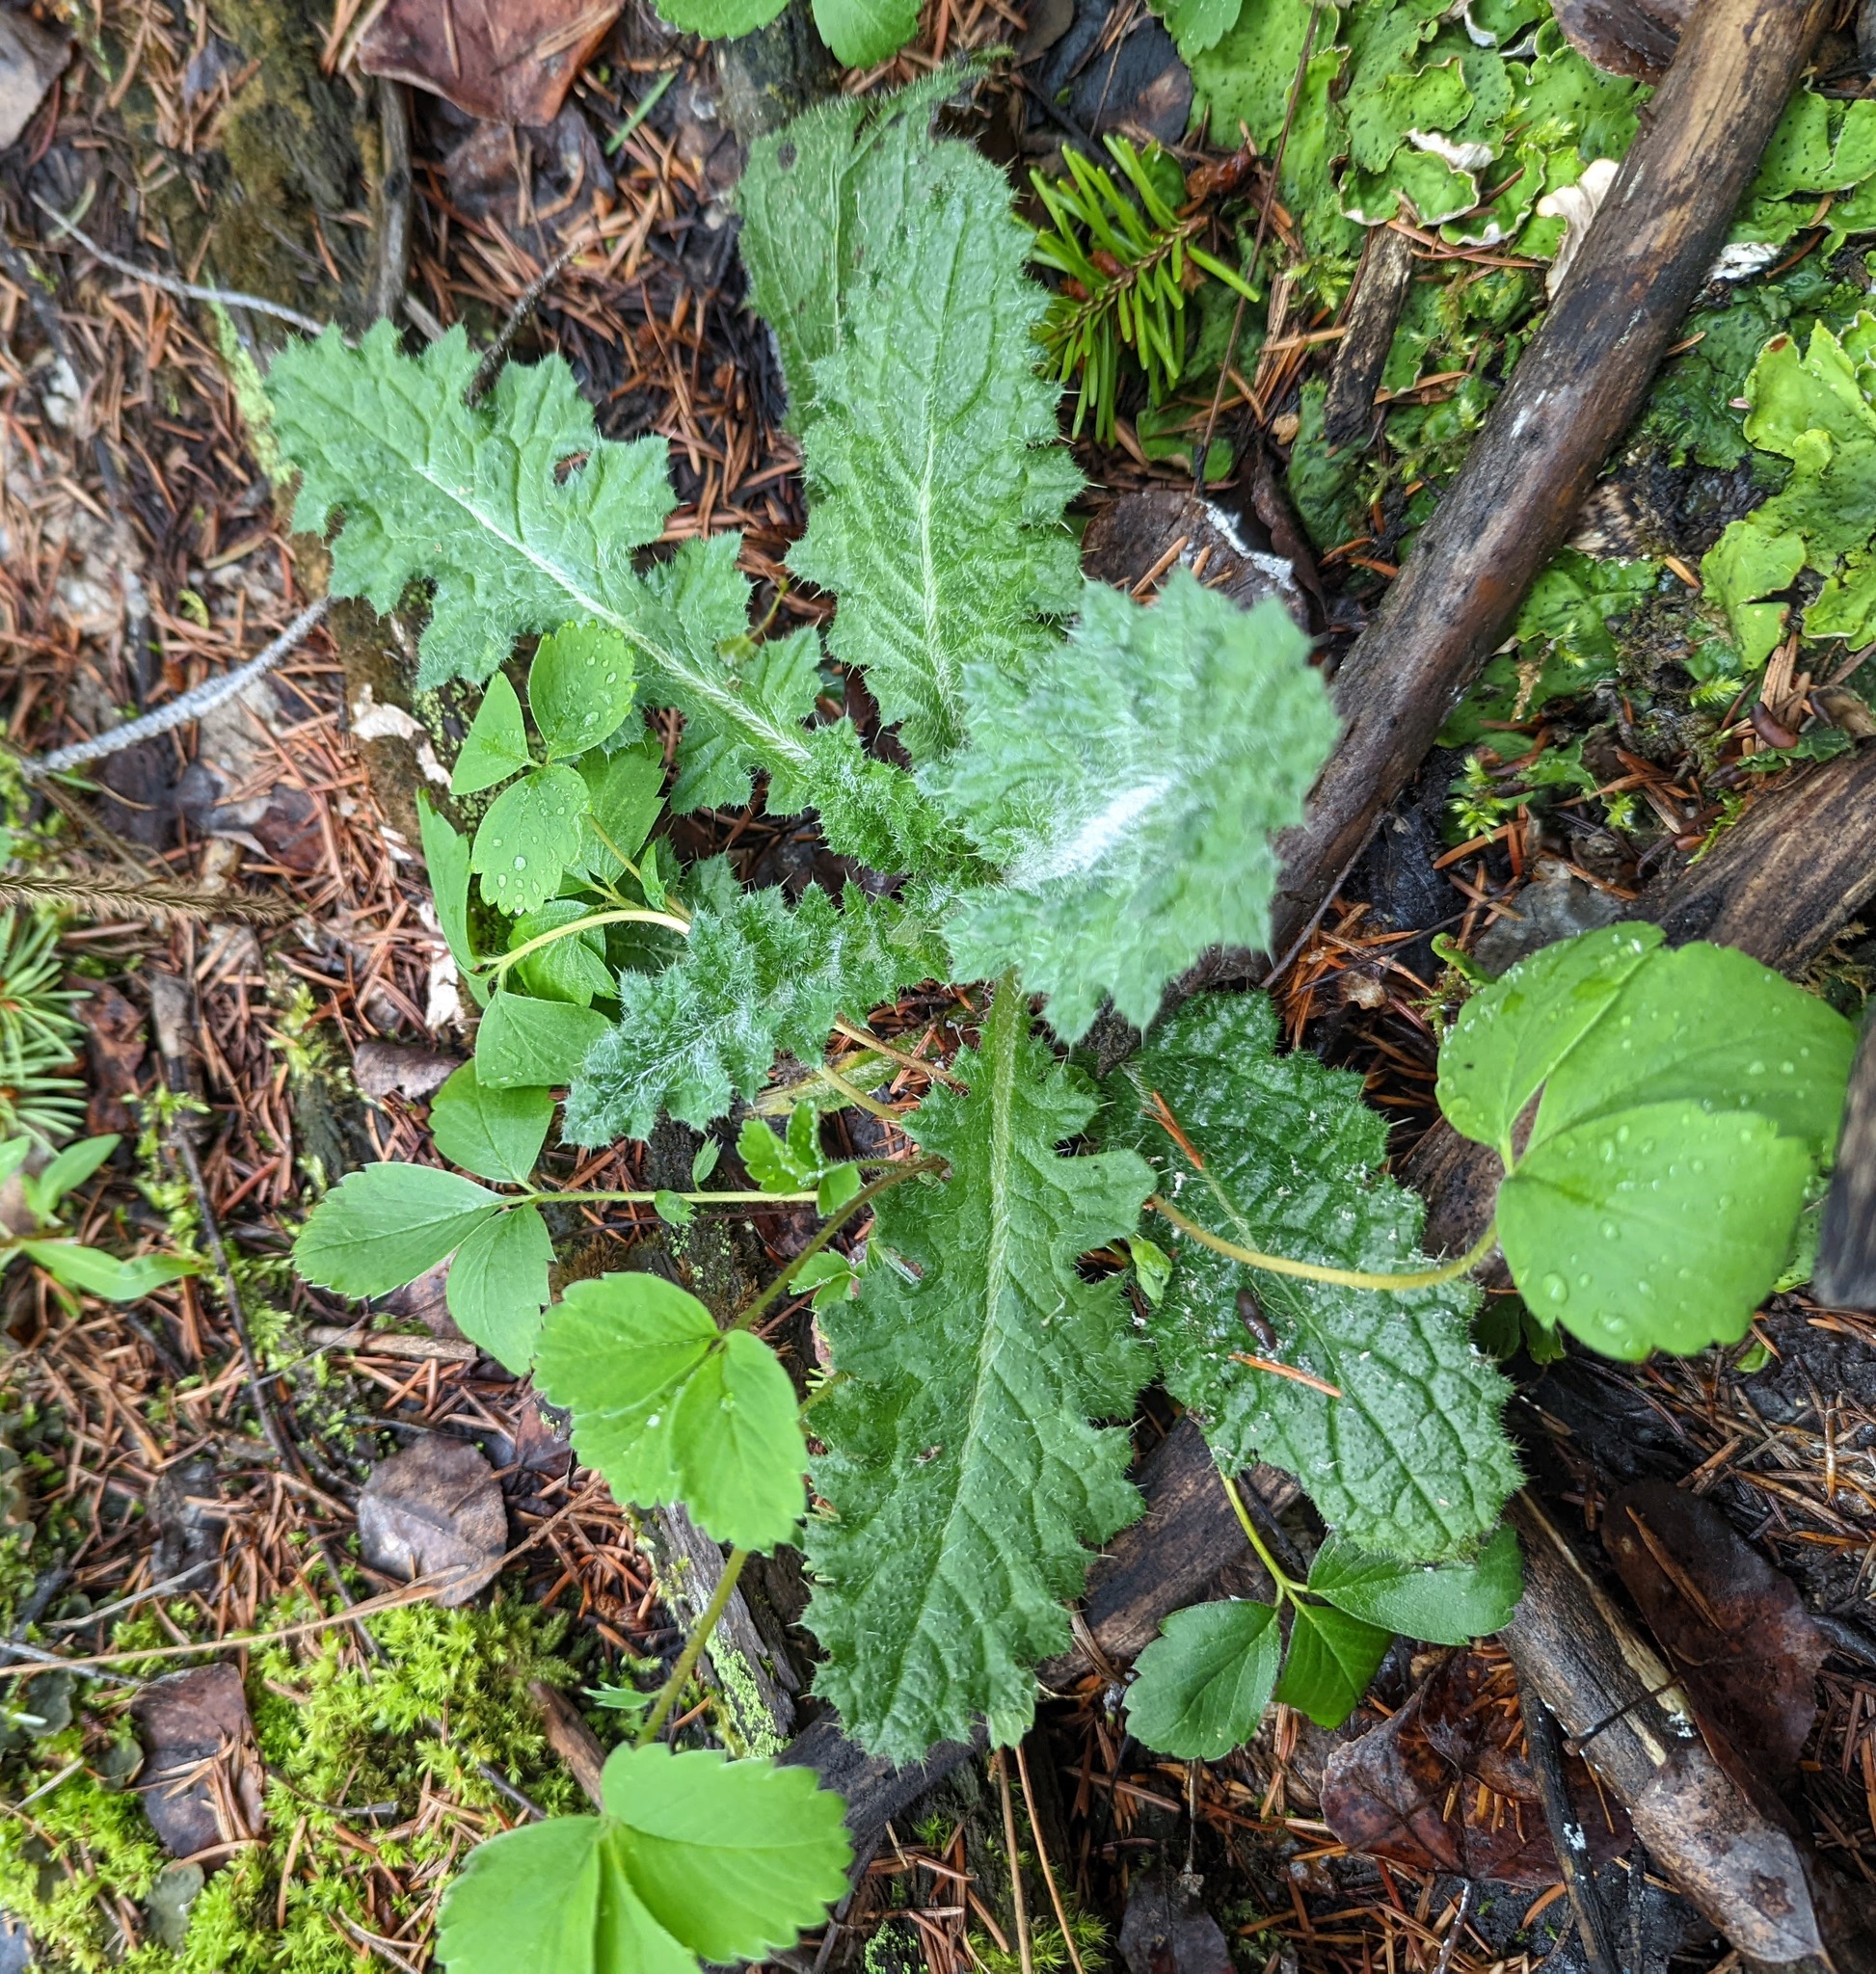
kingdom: Plantae
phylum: Tracheophyta
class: Magnoliopsida
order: Asterales
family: Asteraceae
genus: Cirsium
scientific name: Cirsium vulgare
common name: Bull thistle
